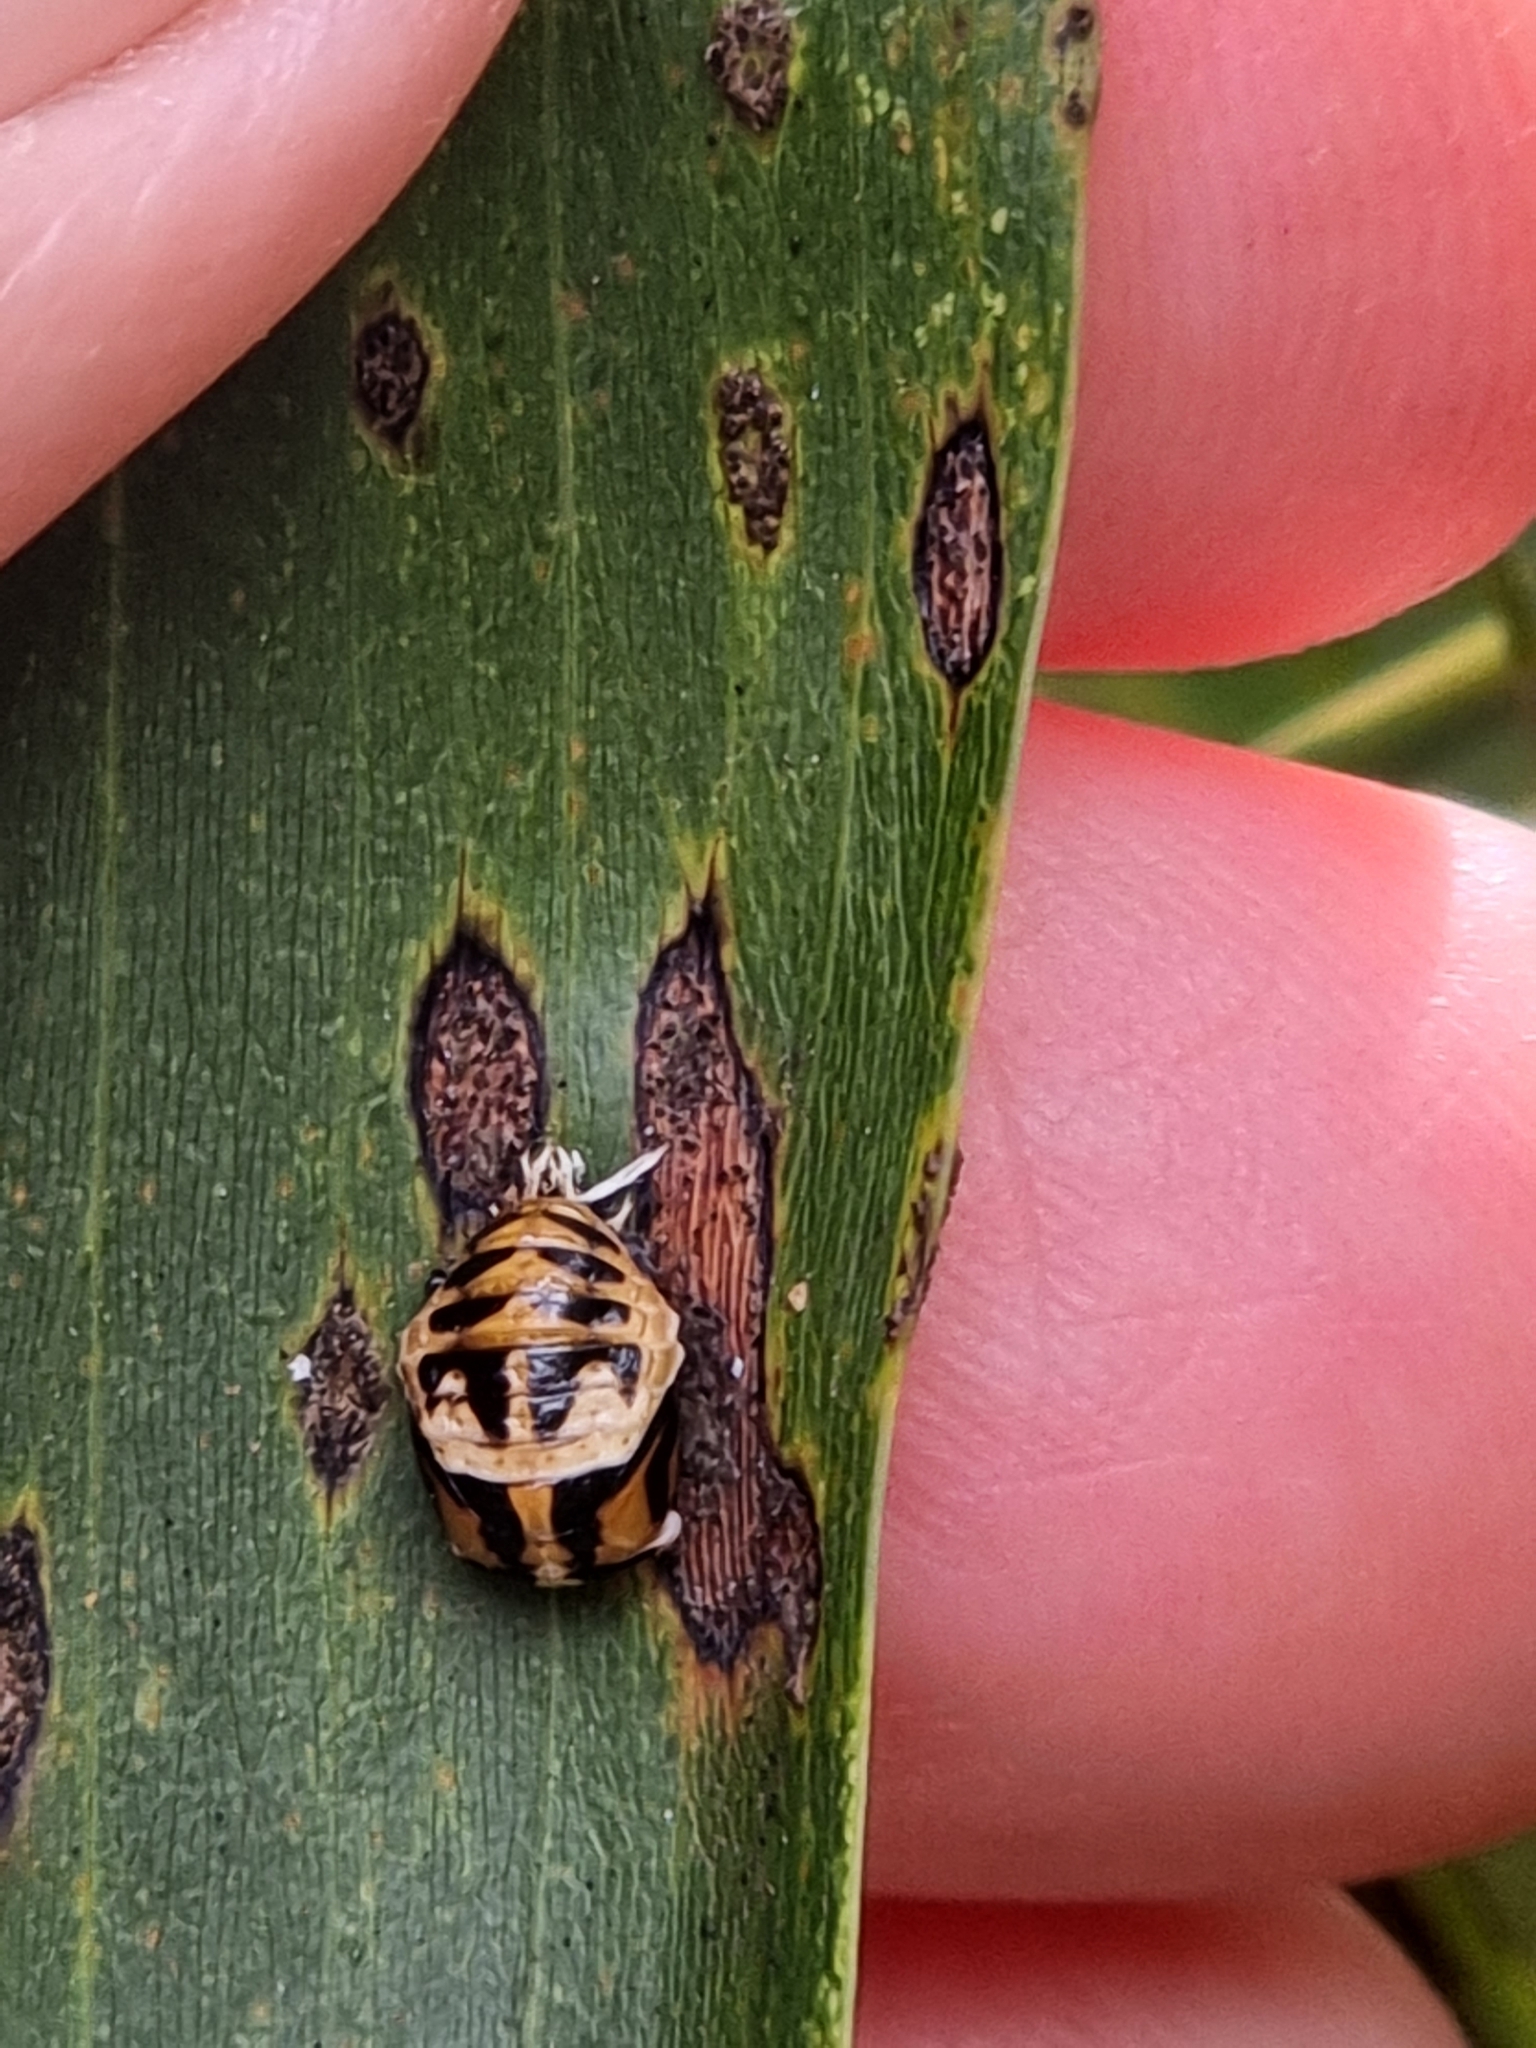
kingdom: Animalia
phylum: Arthropoda
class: Insecta
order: Coleoptera
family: Coccinellidae
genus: Harmonia
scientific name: Harmonia
